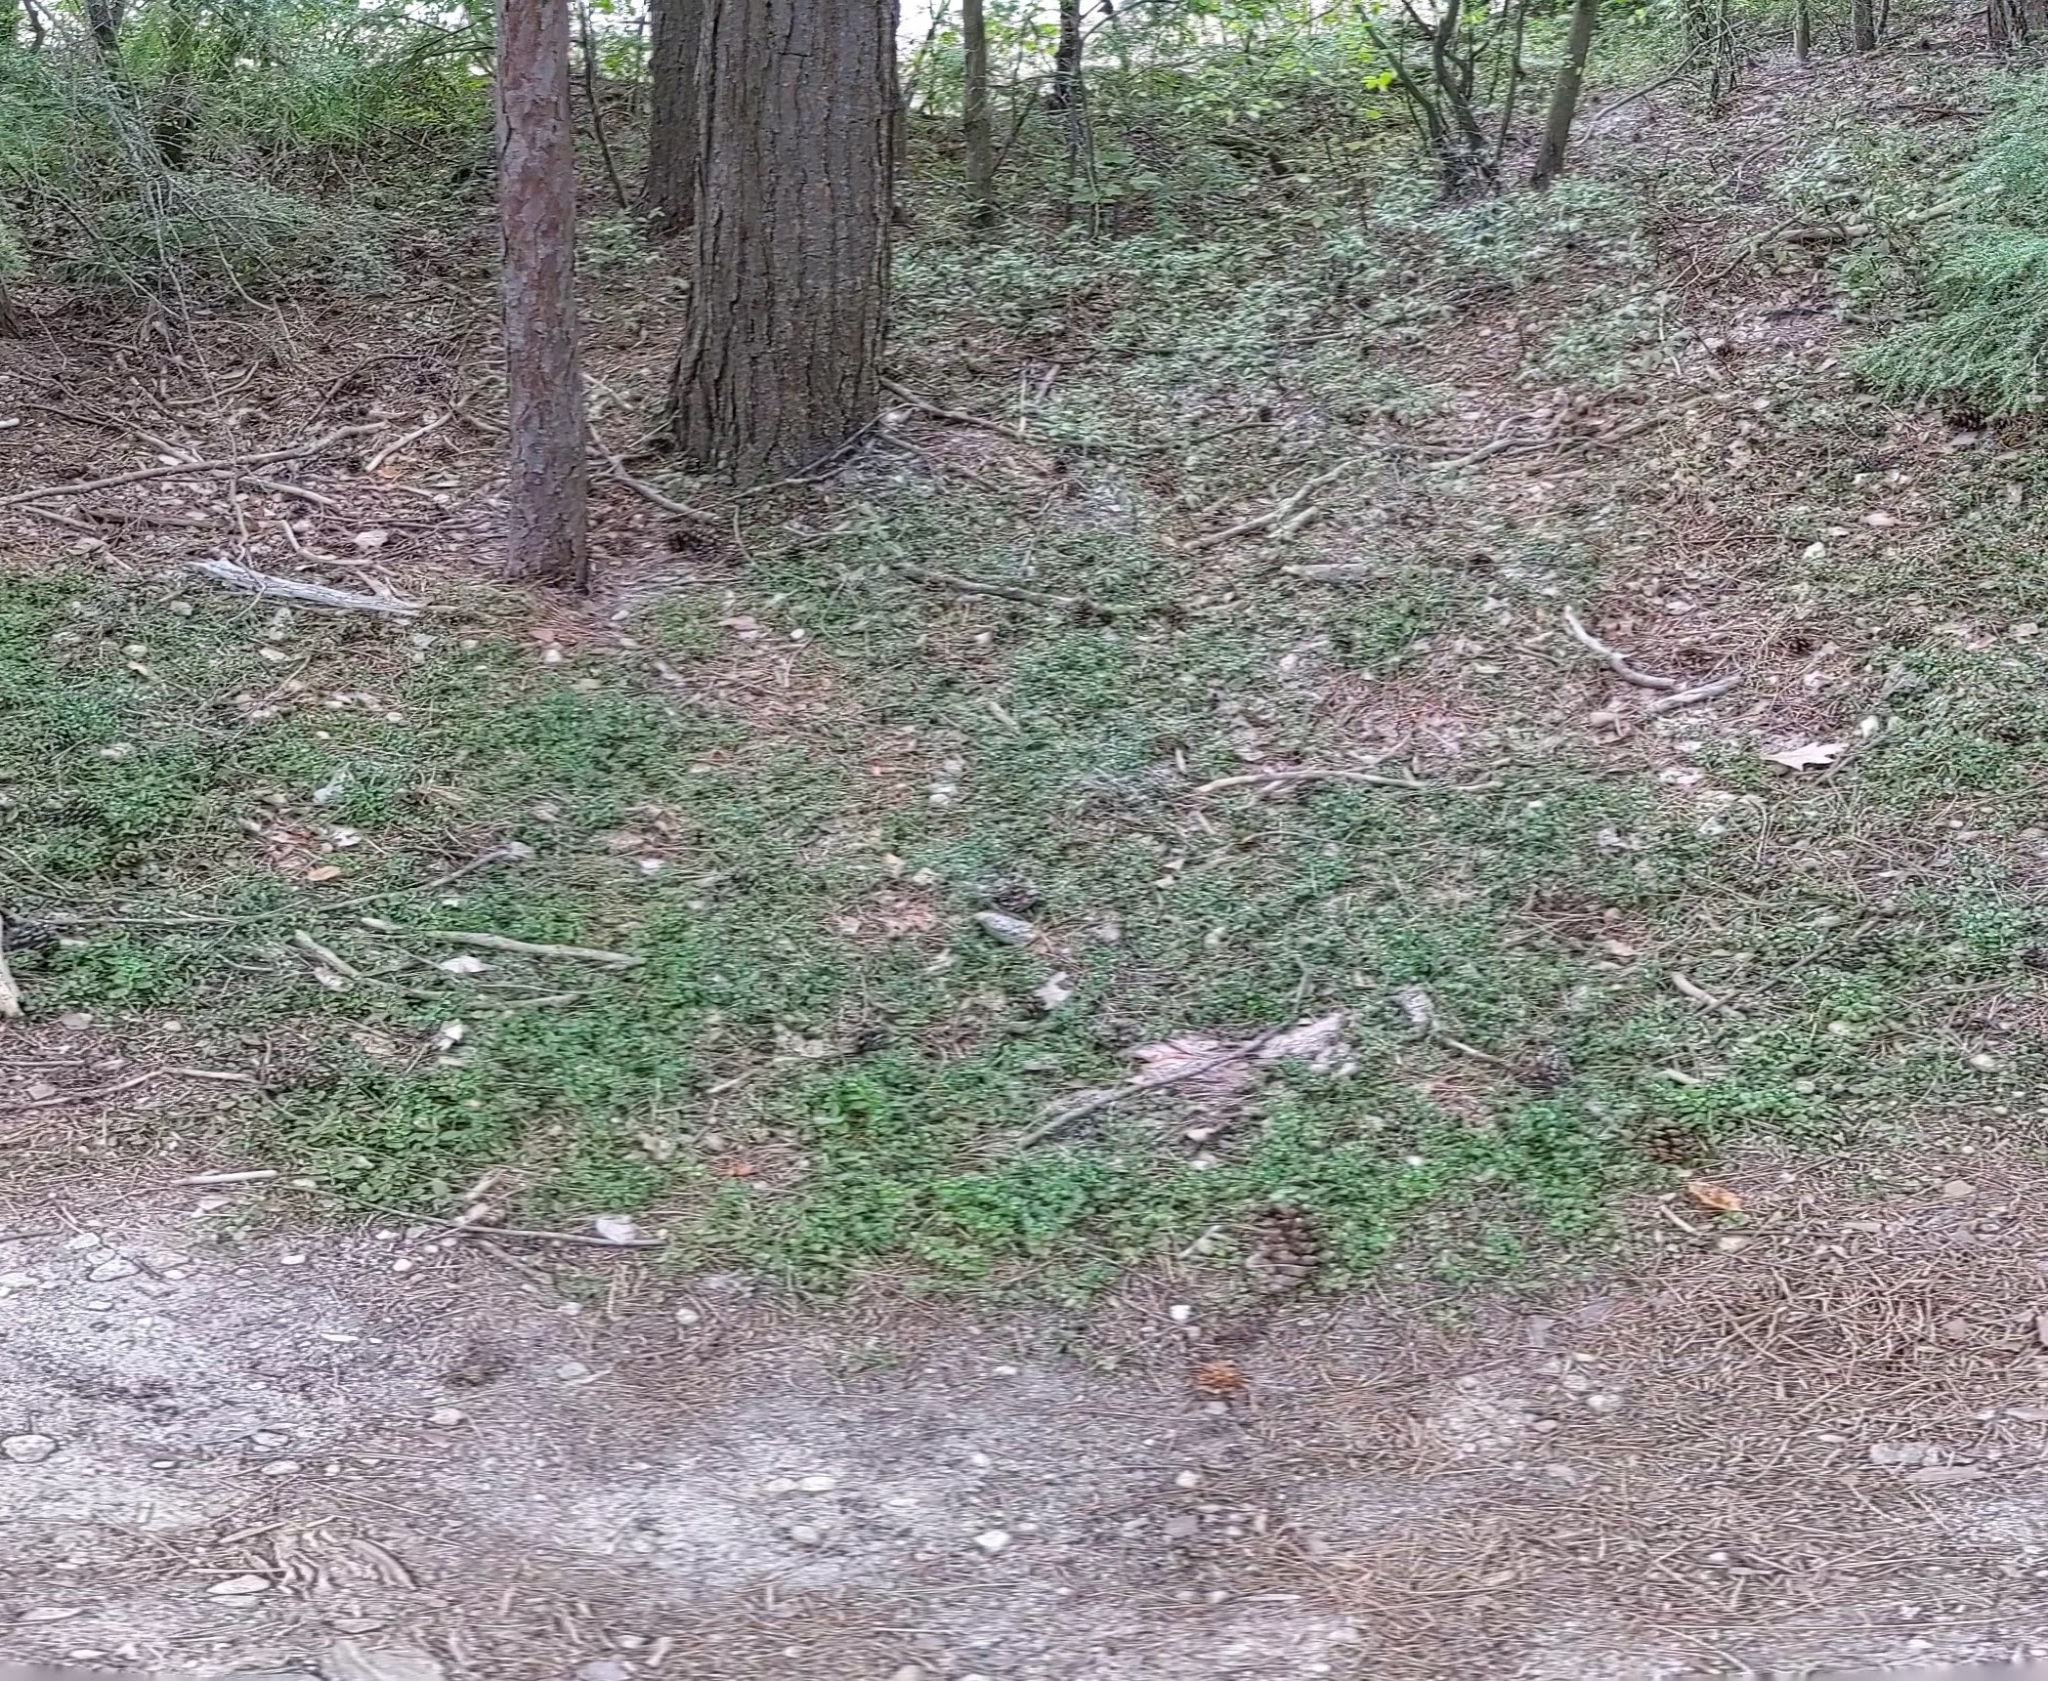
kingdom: Plantae
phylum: Tracheophyta
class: Magnoliopsida
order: Ericales
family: Ericaceae
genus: Gaultheria
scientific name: Gaultheria hispidula
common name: Cancer wintergreen
